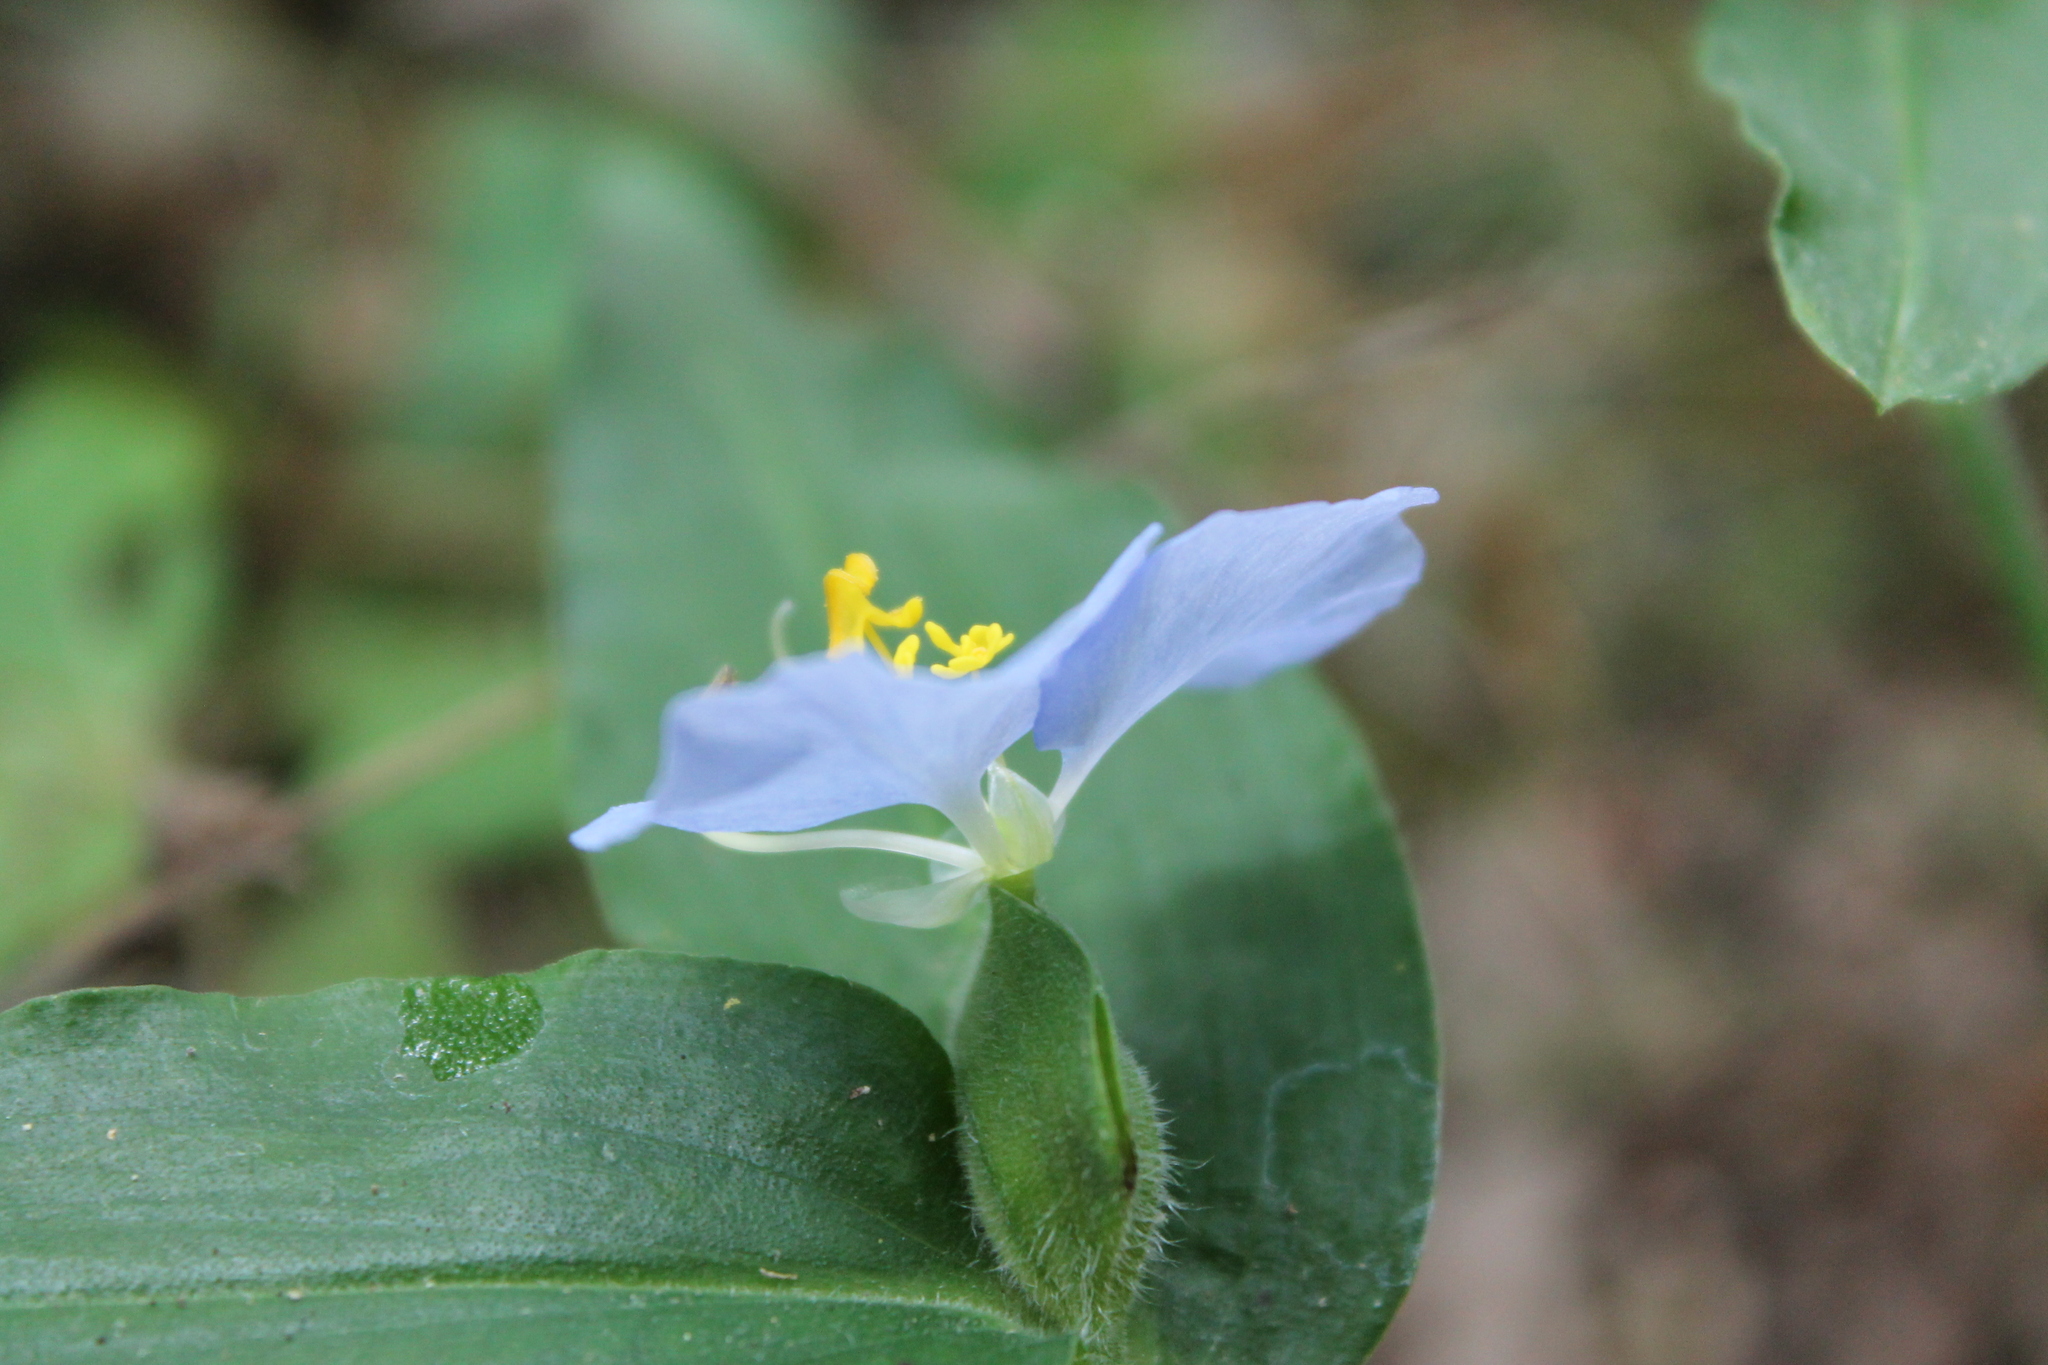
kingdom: Plantae
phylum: Tracheophyta
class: Liliopsida
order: Commelinales
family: Commelinaceae
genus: Commelina
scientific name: Commelina erecta
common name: Blousel blommetjie
